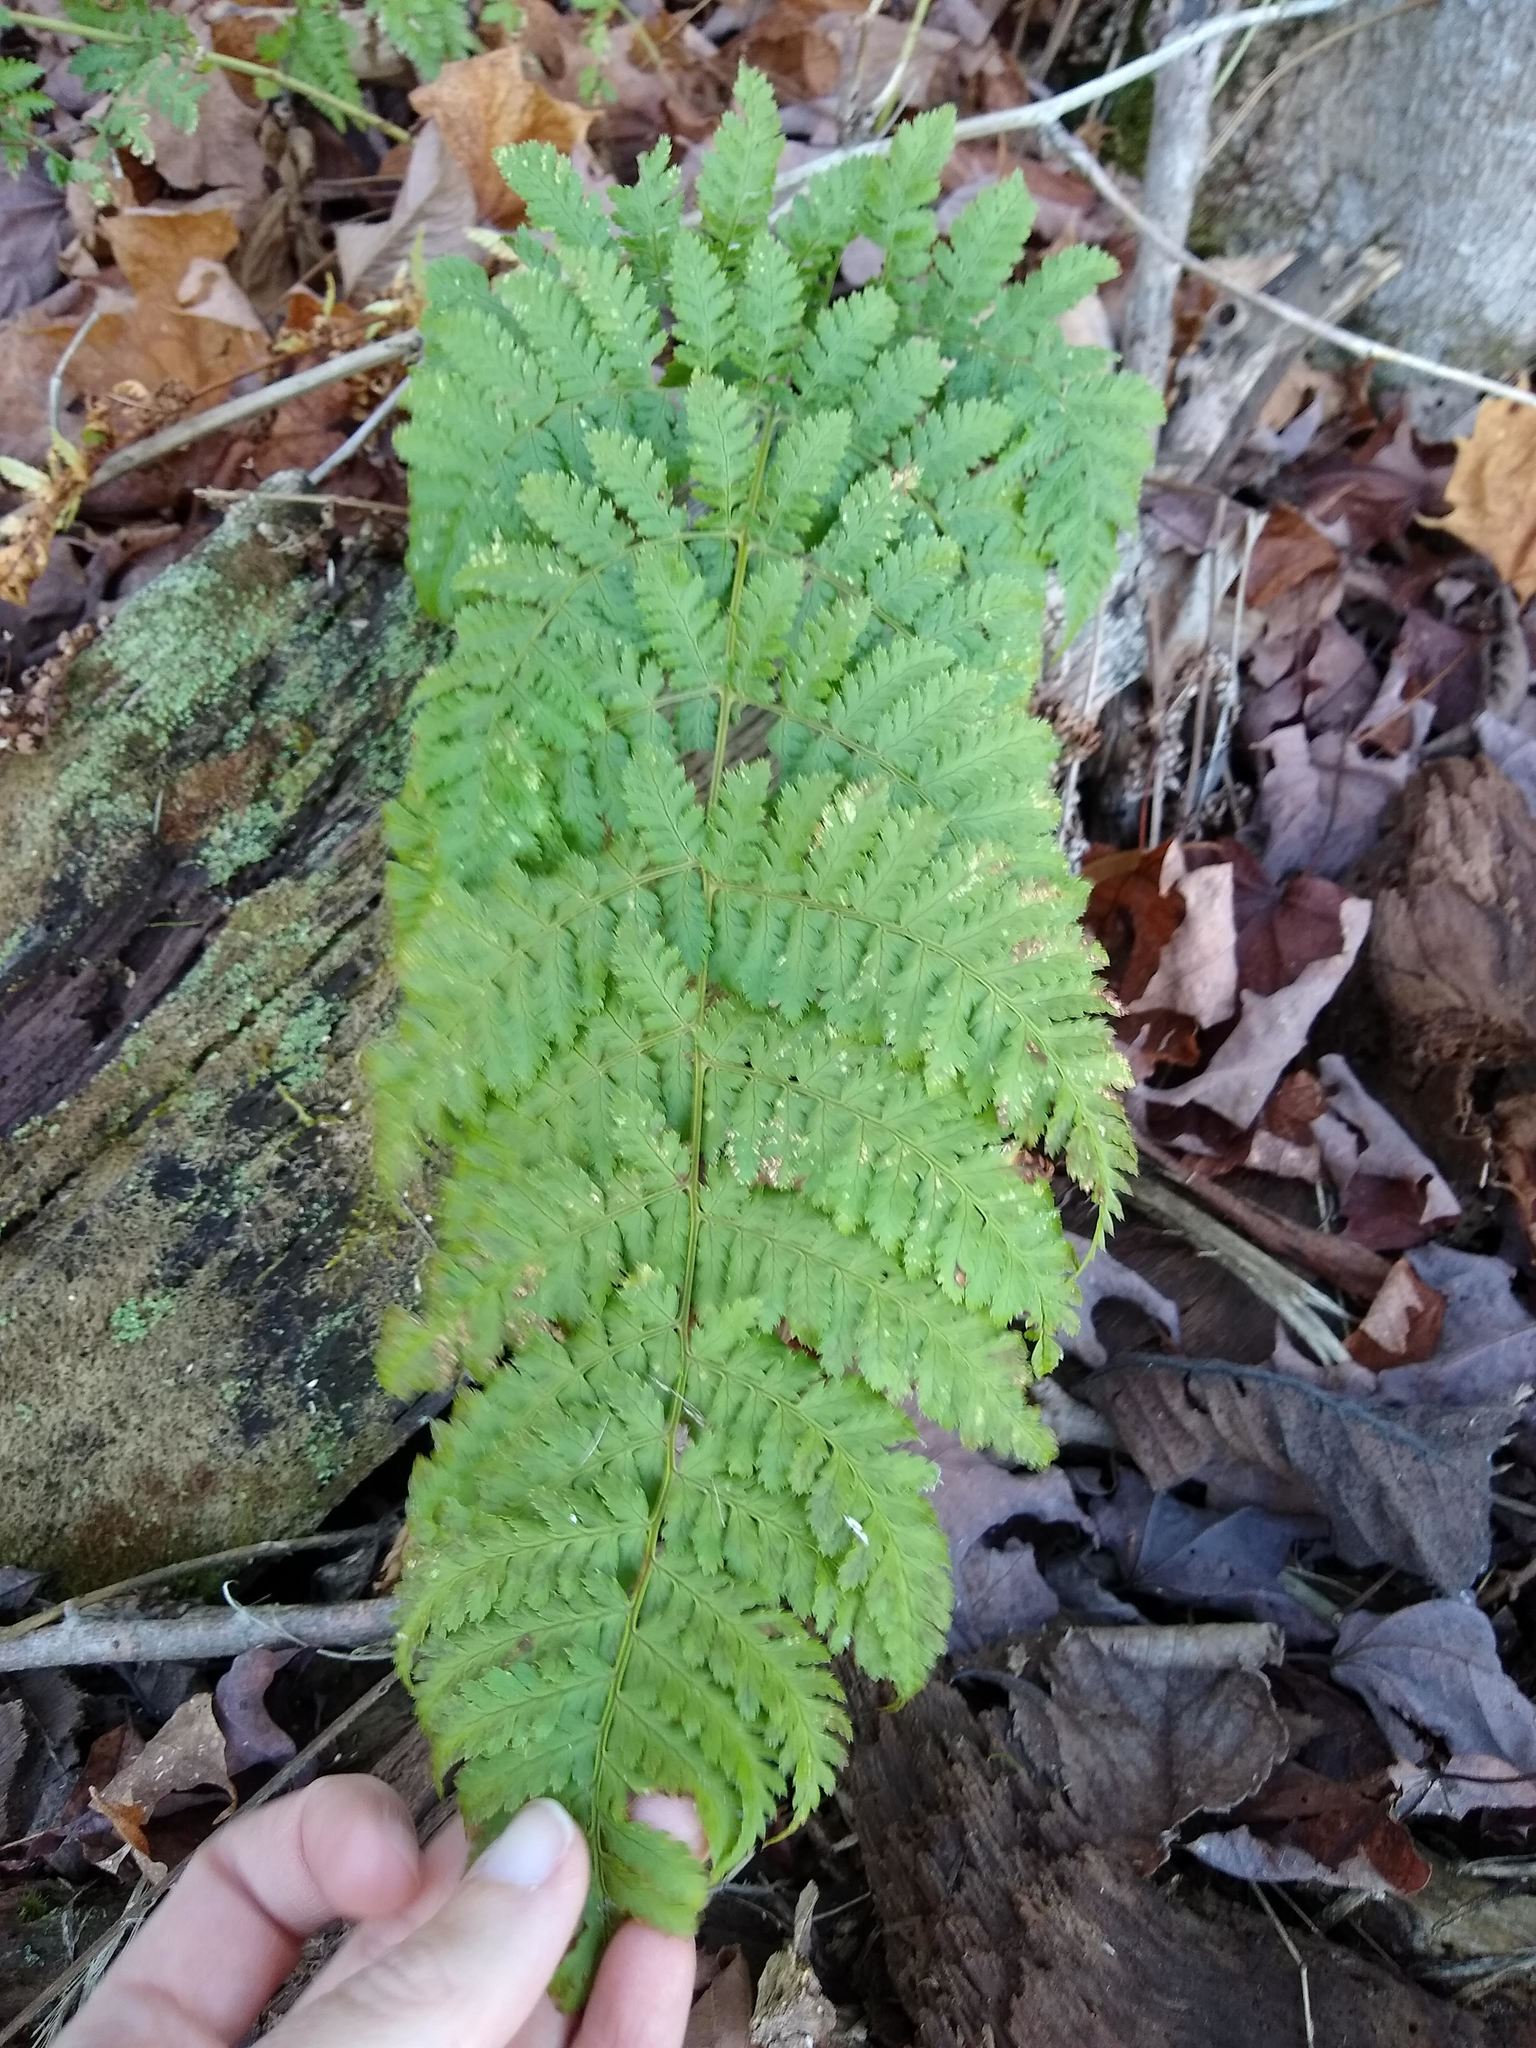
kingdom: Plantae
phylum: Tracheophyta
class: Polypodiopsida
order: Polypodiales
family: Dryopteridaceae
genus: Dryopteris
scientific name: Dryopteris intermedia
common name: Evergreen wood fern
